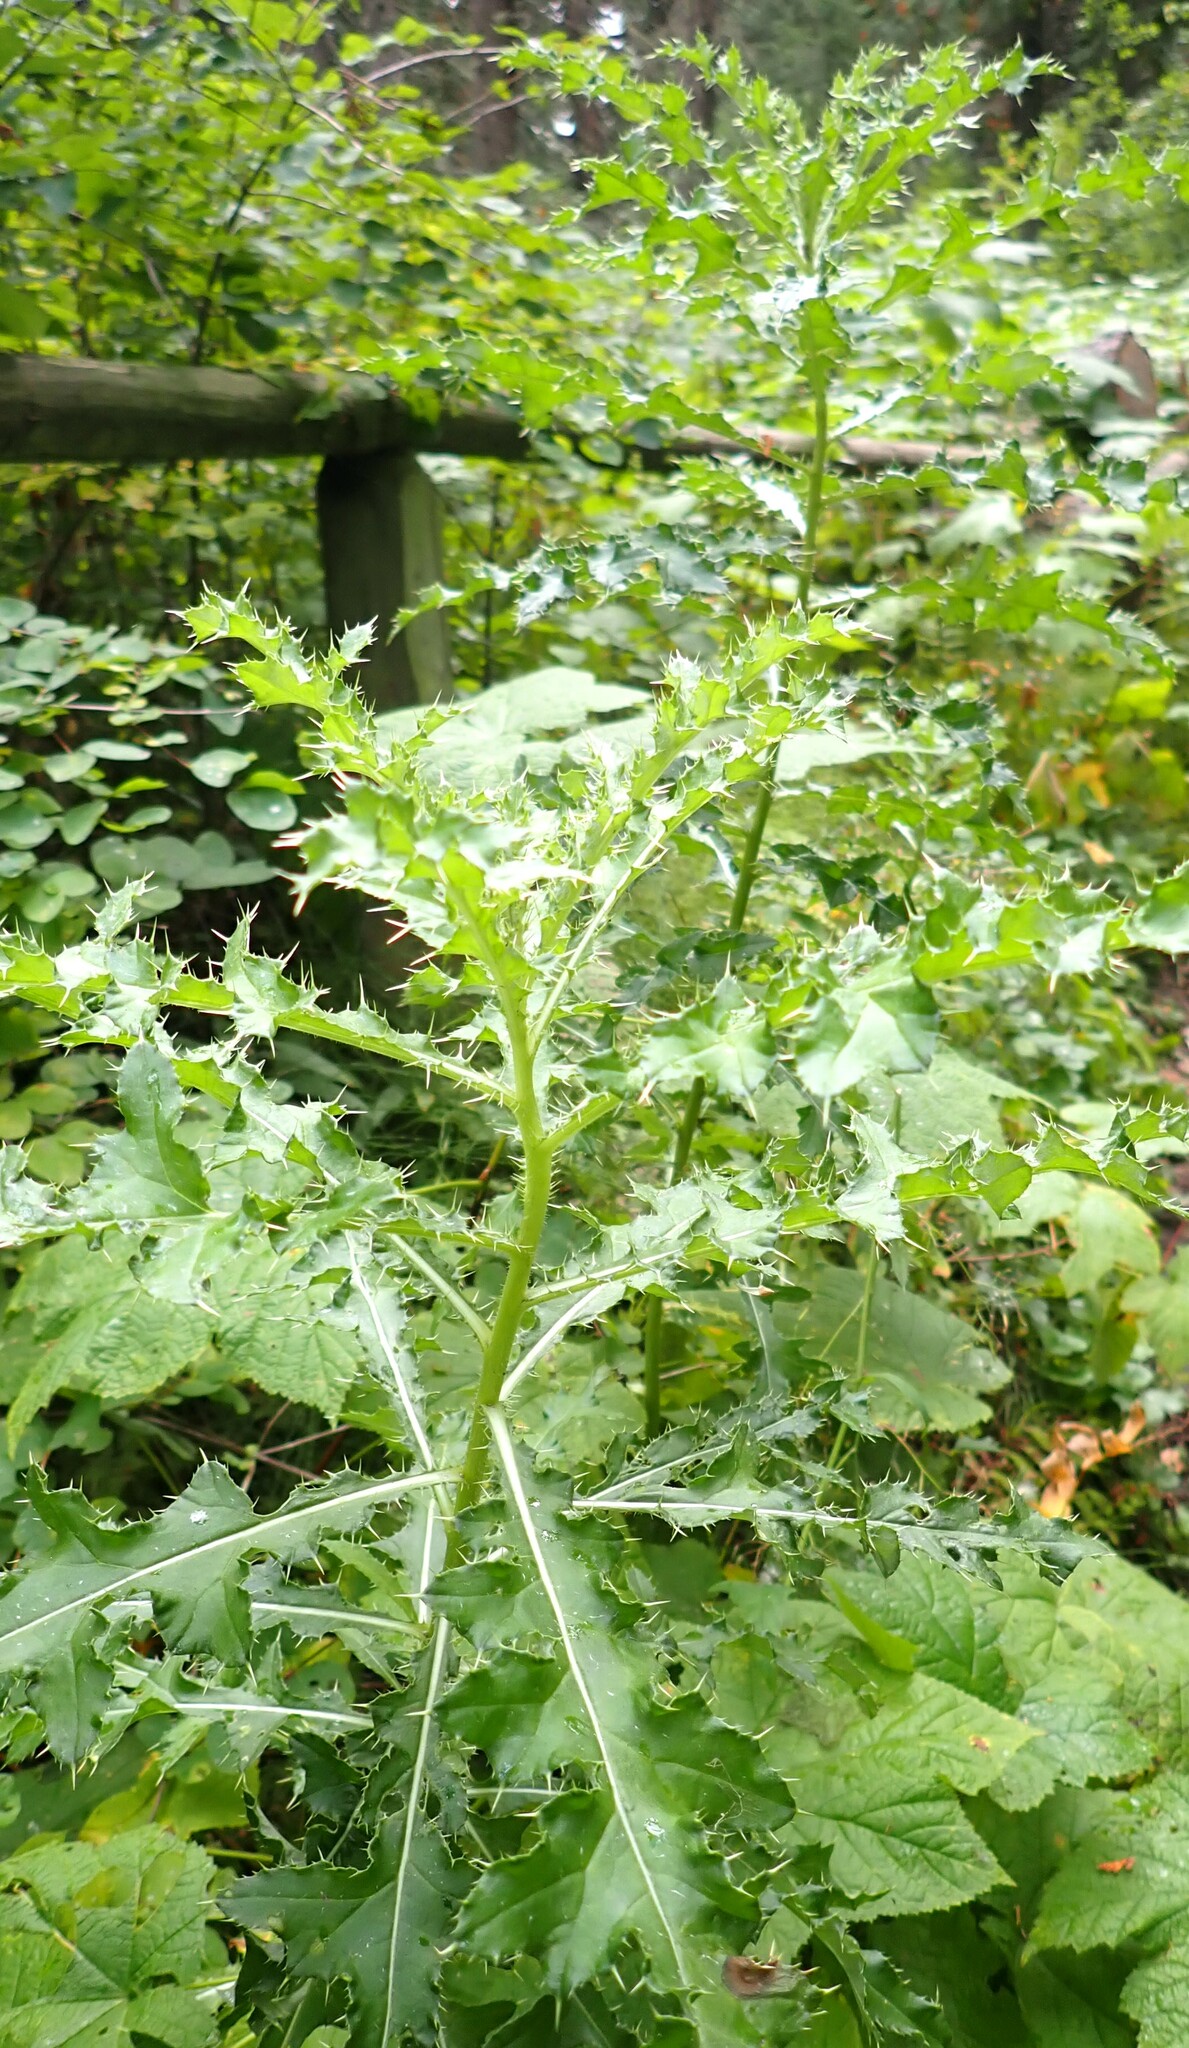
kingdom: Plantae
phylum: Tracheophyta
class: Magnoliopsida
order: Asterales
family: Asteraceae
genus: Cirsium
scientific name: Cirsium arvense
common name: Creeping thistle
